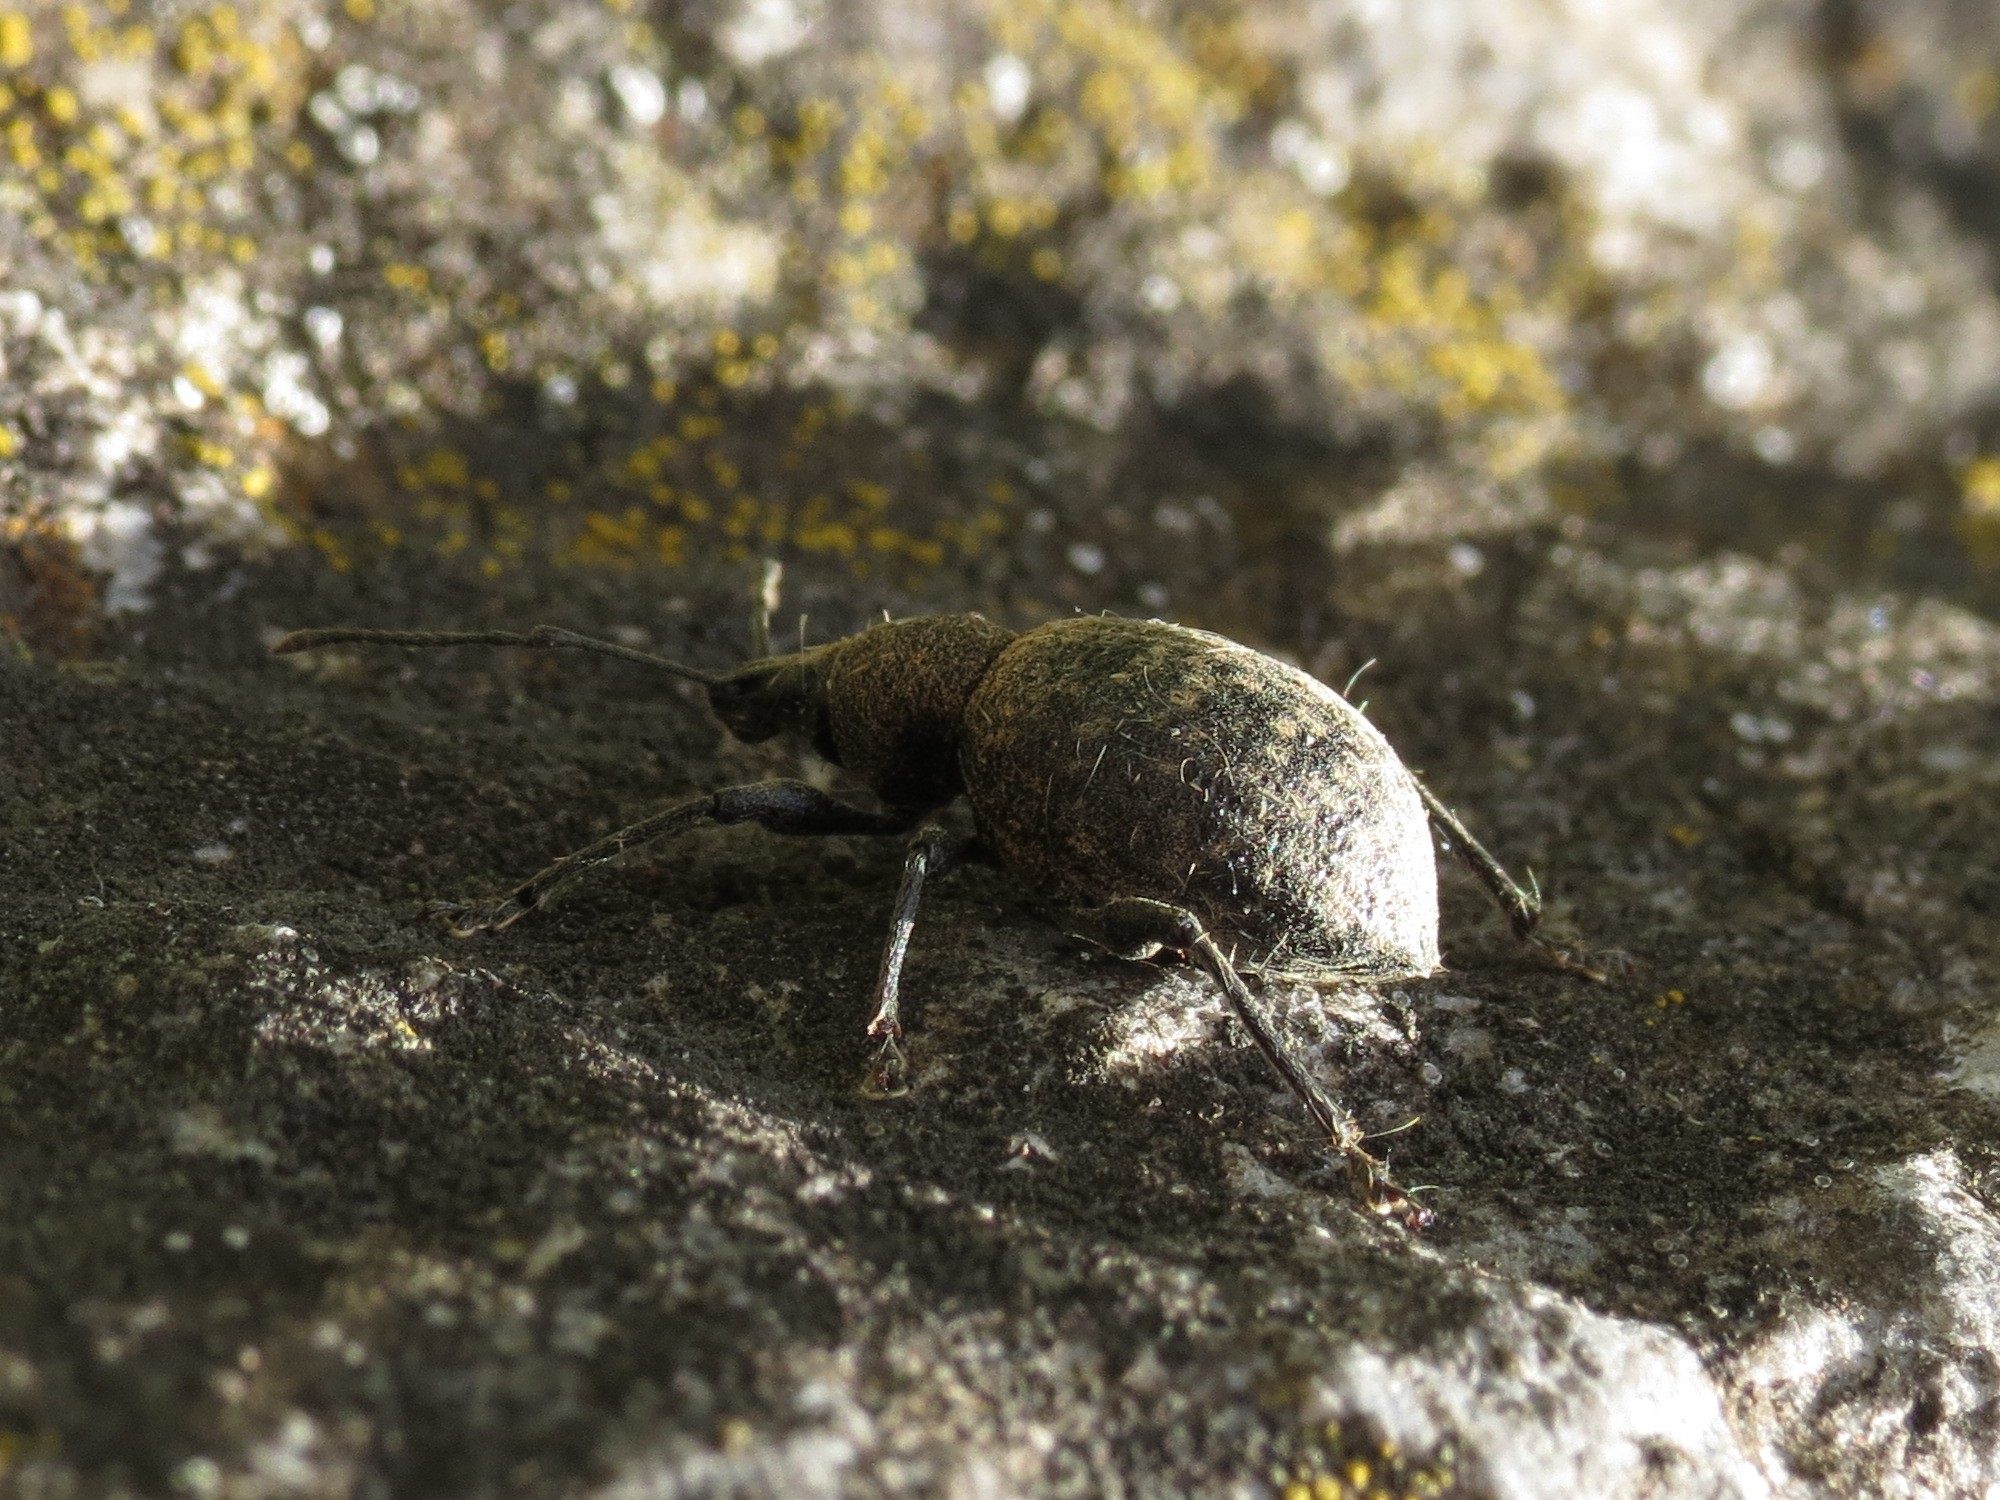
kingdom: Animalia
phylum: Arthropoda
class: Insecta
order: Coleoptera
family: Curculionidae
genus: Liophloeus
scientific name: Liophloeus tessulatus
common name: Weevil
